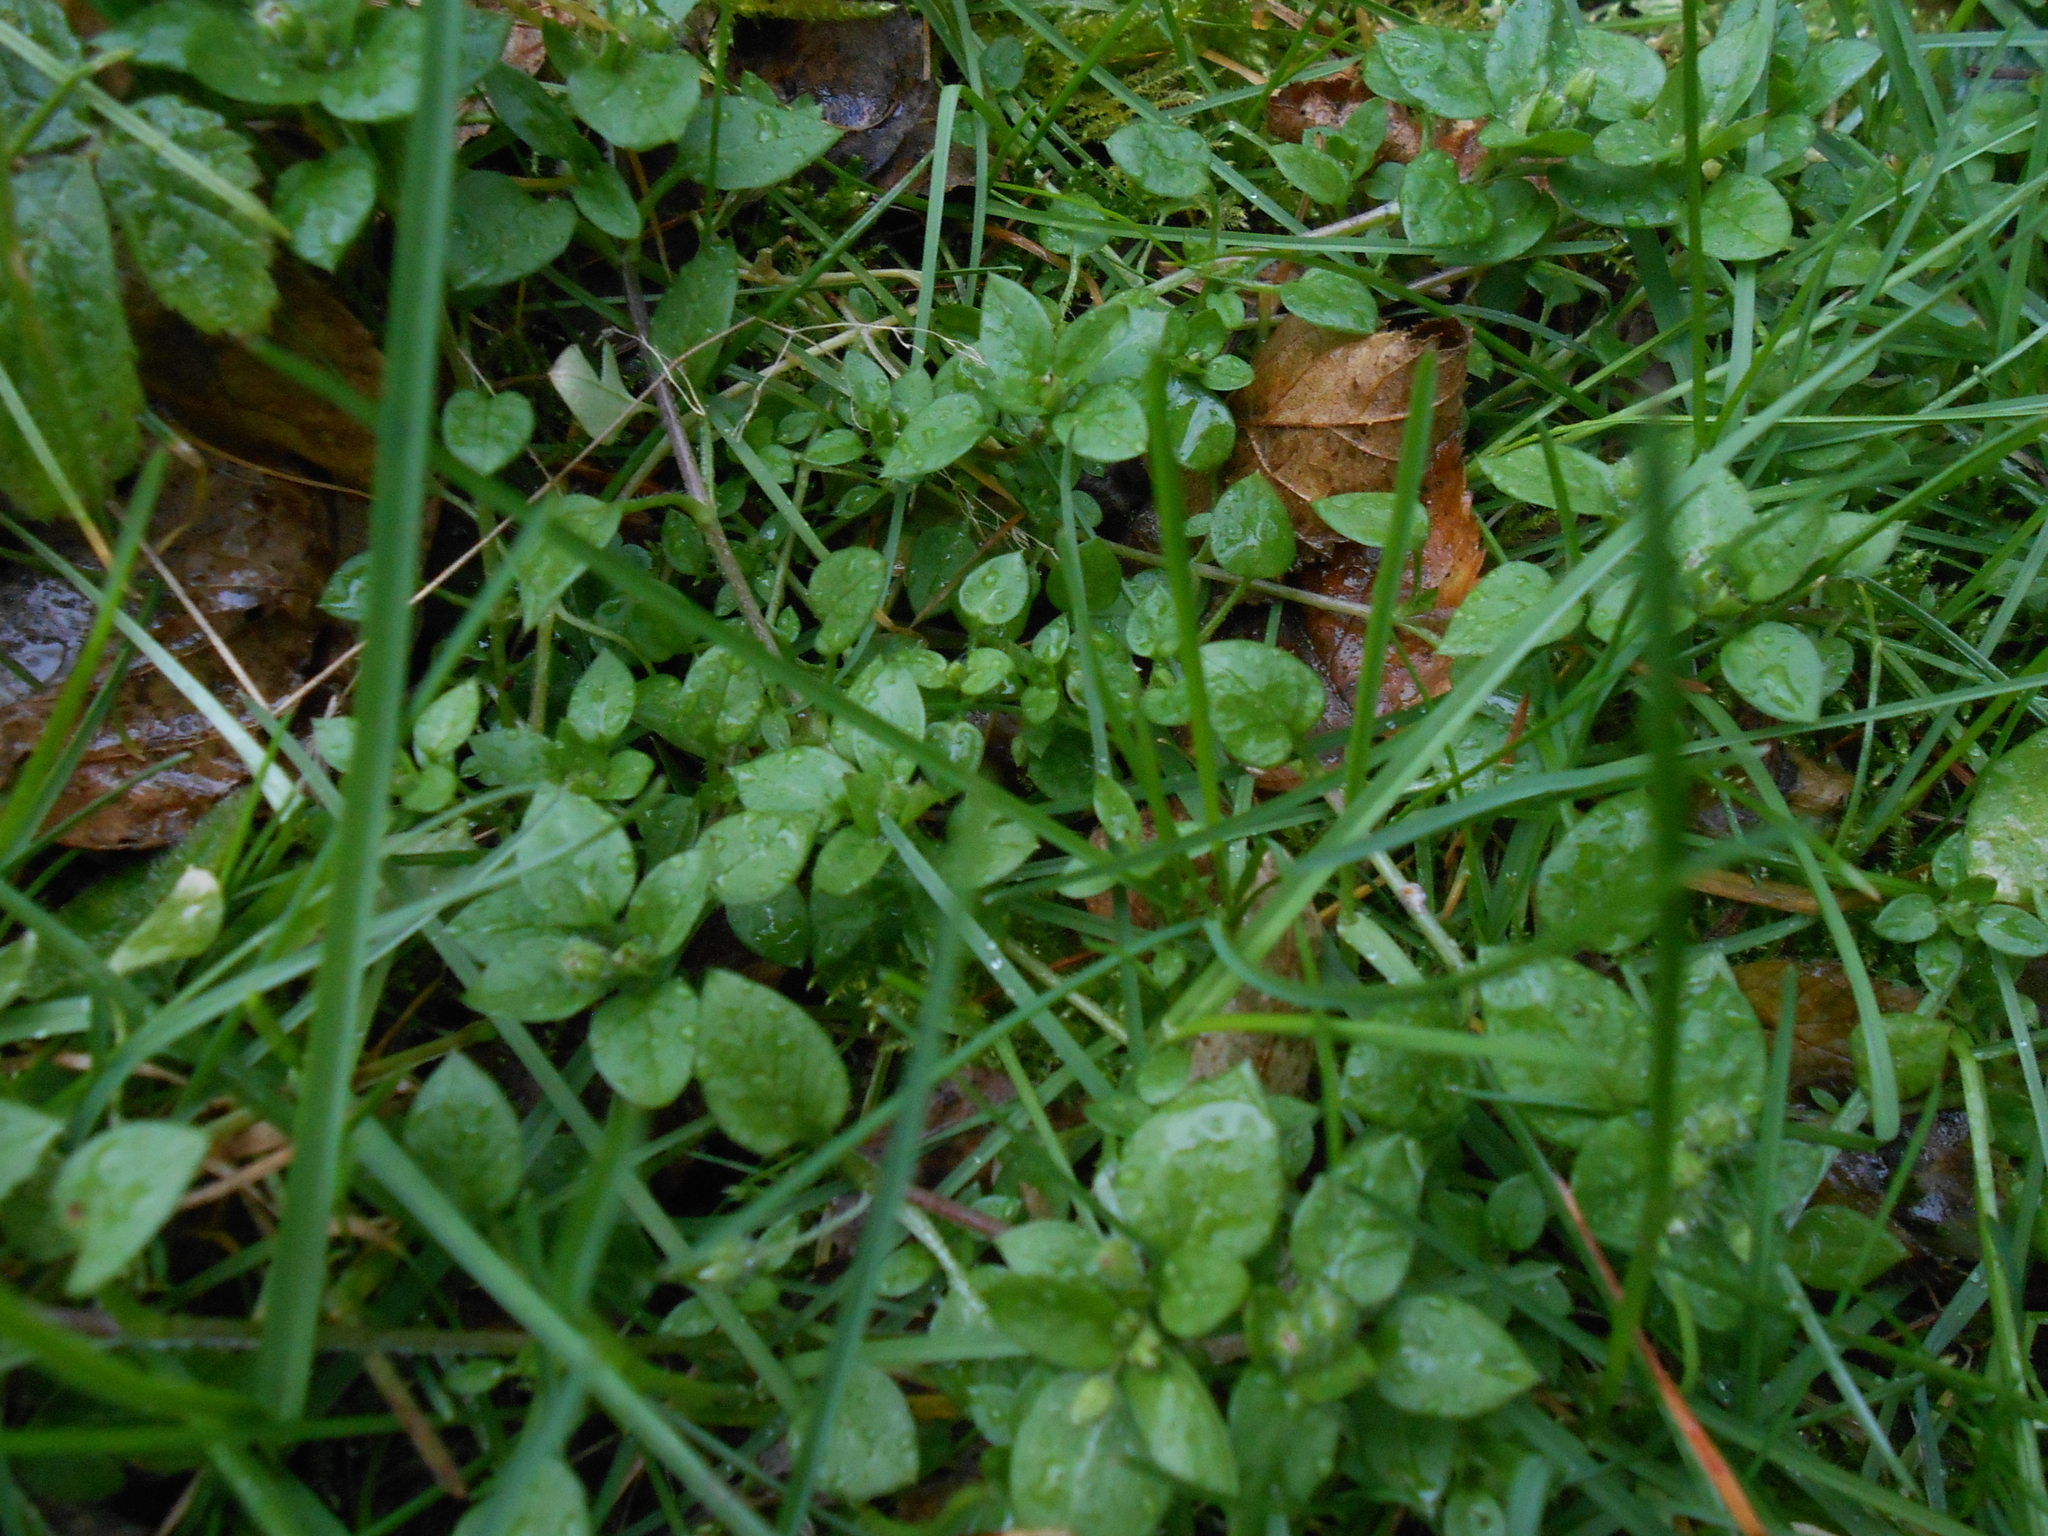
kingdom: Plantae
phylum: Tracheophyta
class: Magnoliopsida
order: Caryophyllales
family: Caryophyllaceae
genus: Stellaria
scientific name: Stellaria media
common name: Common chickweed
